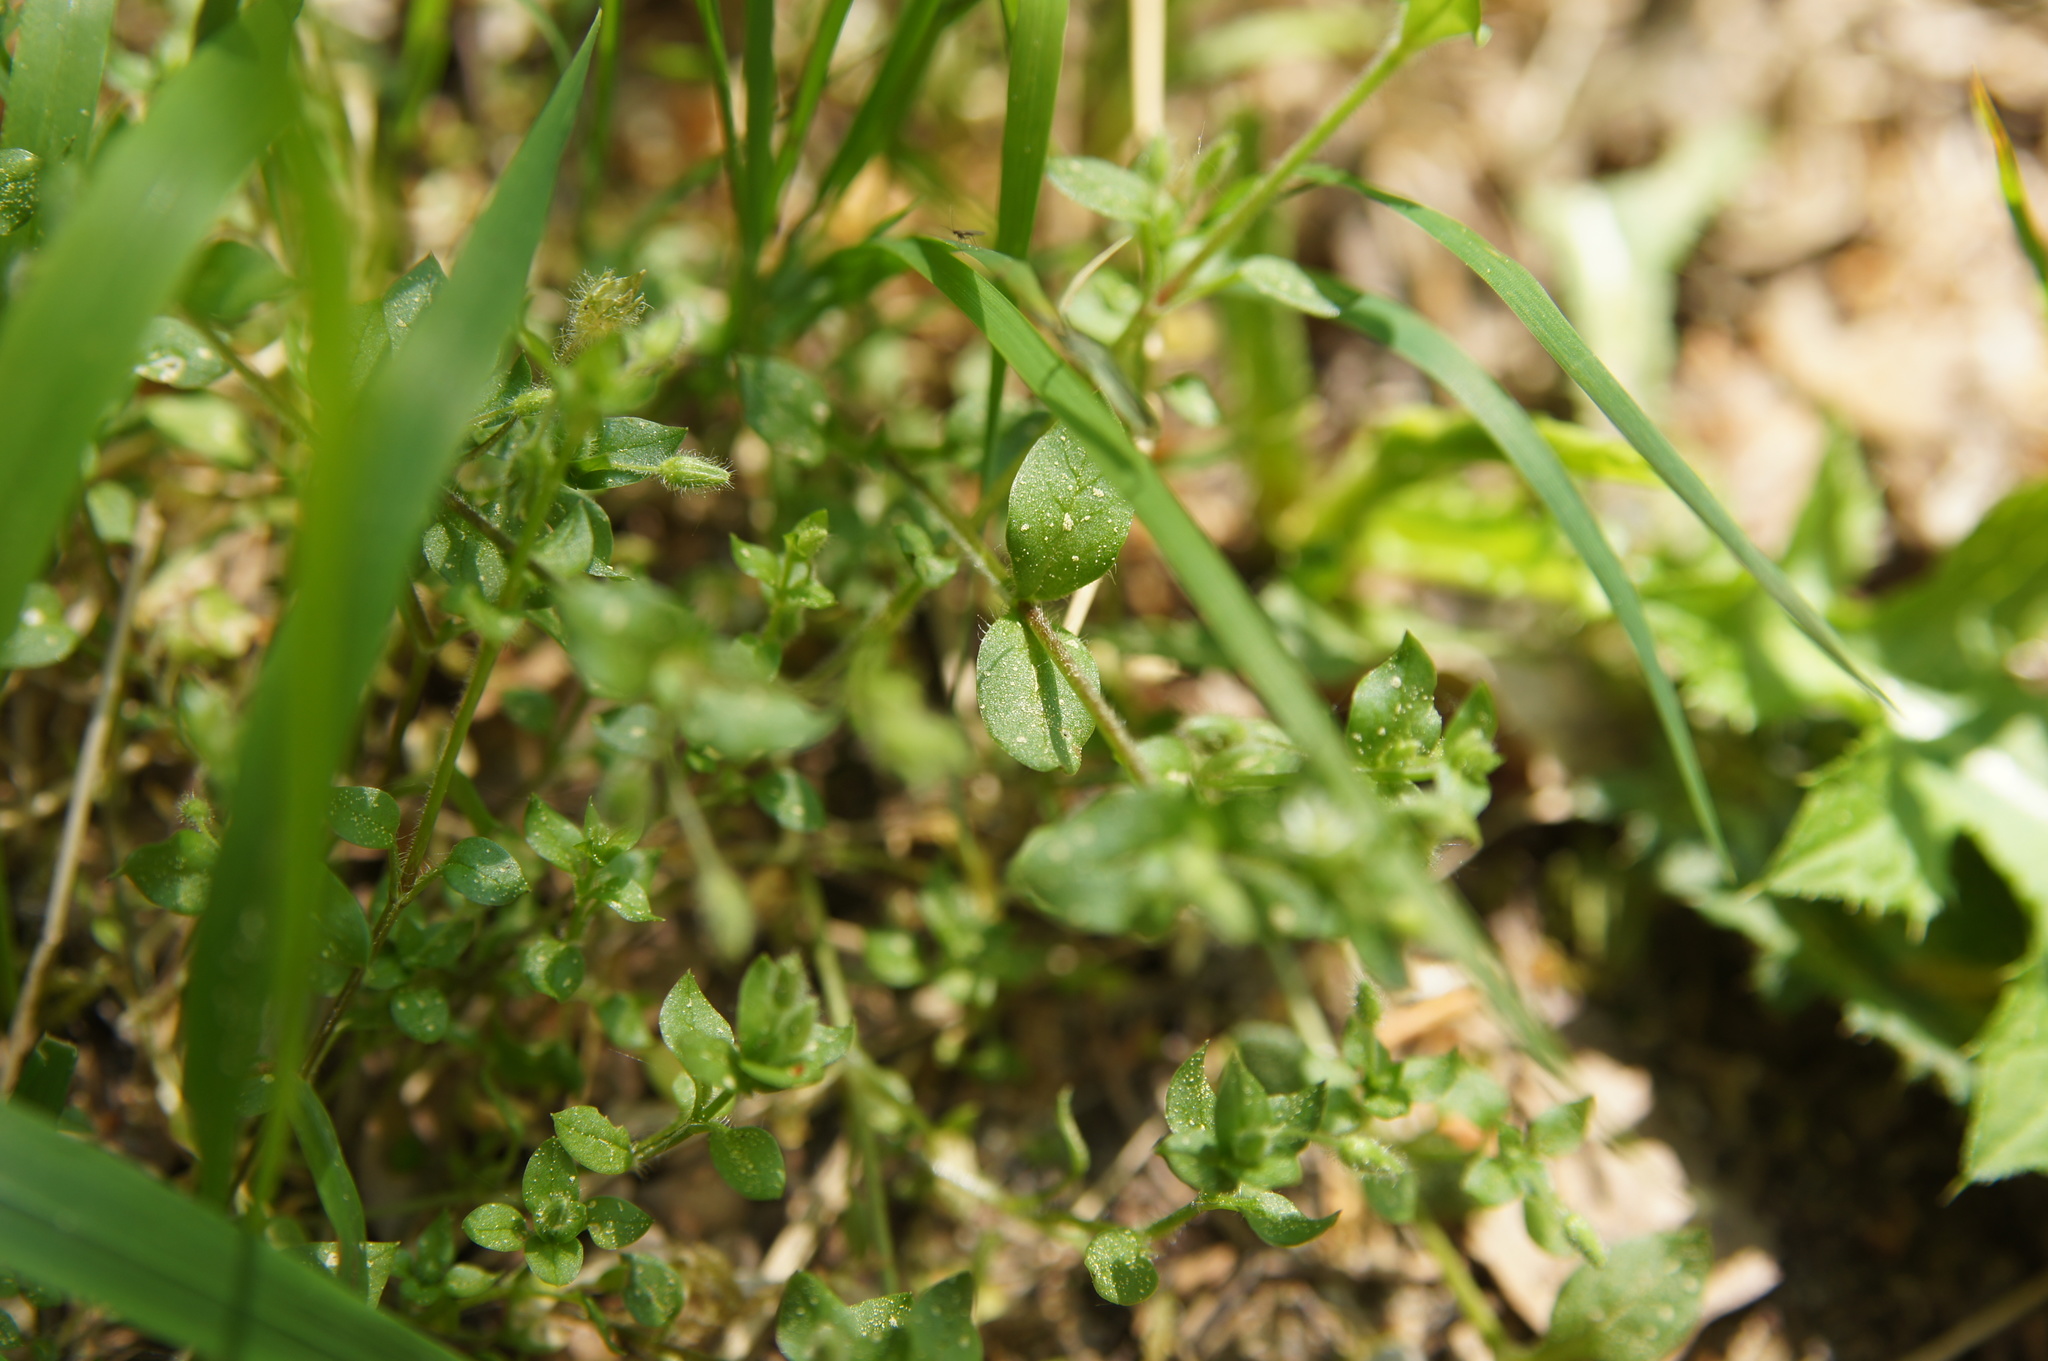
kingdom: Plantae
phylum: Tracheophyta
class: Magnoliopsida
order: Caryophyllales
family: Caryophyllaceae
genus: Stellaria
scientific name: Stellaria media
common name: Common chickweed
